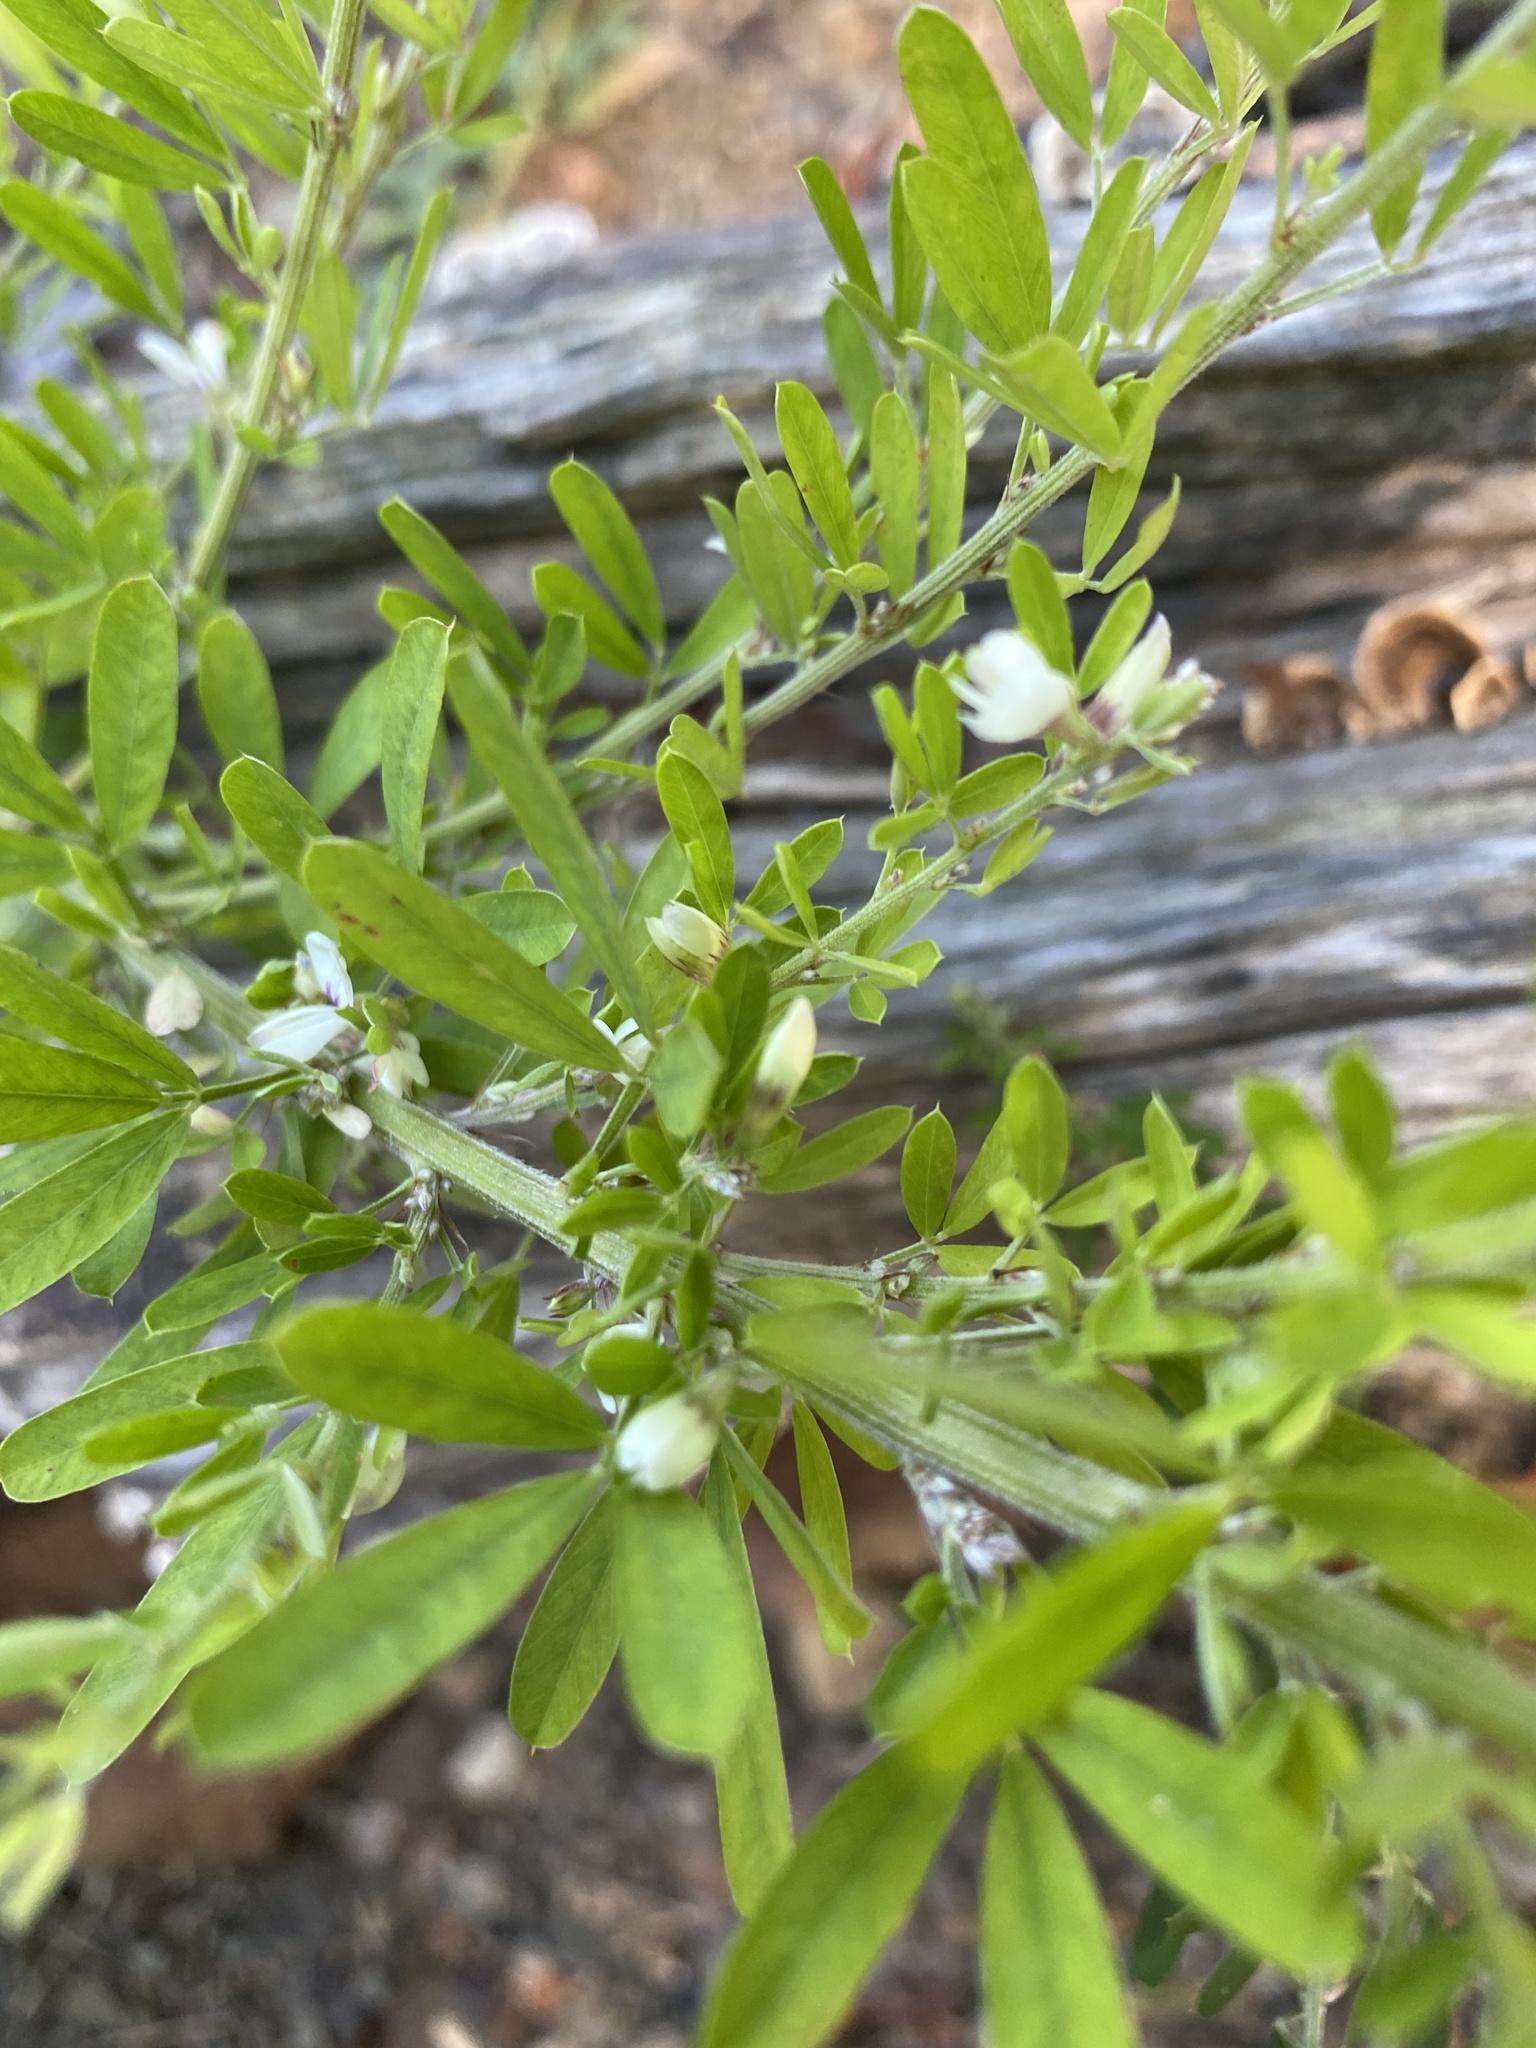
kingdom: Plantae
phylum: Tracheophyta
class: Magnoliopsida
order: Fabales
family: Fabaceae
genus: Lespedeza
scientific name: Lespedeza cuneata
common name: Chinese bush-clover
